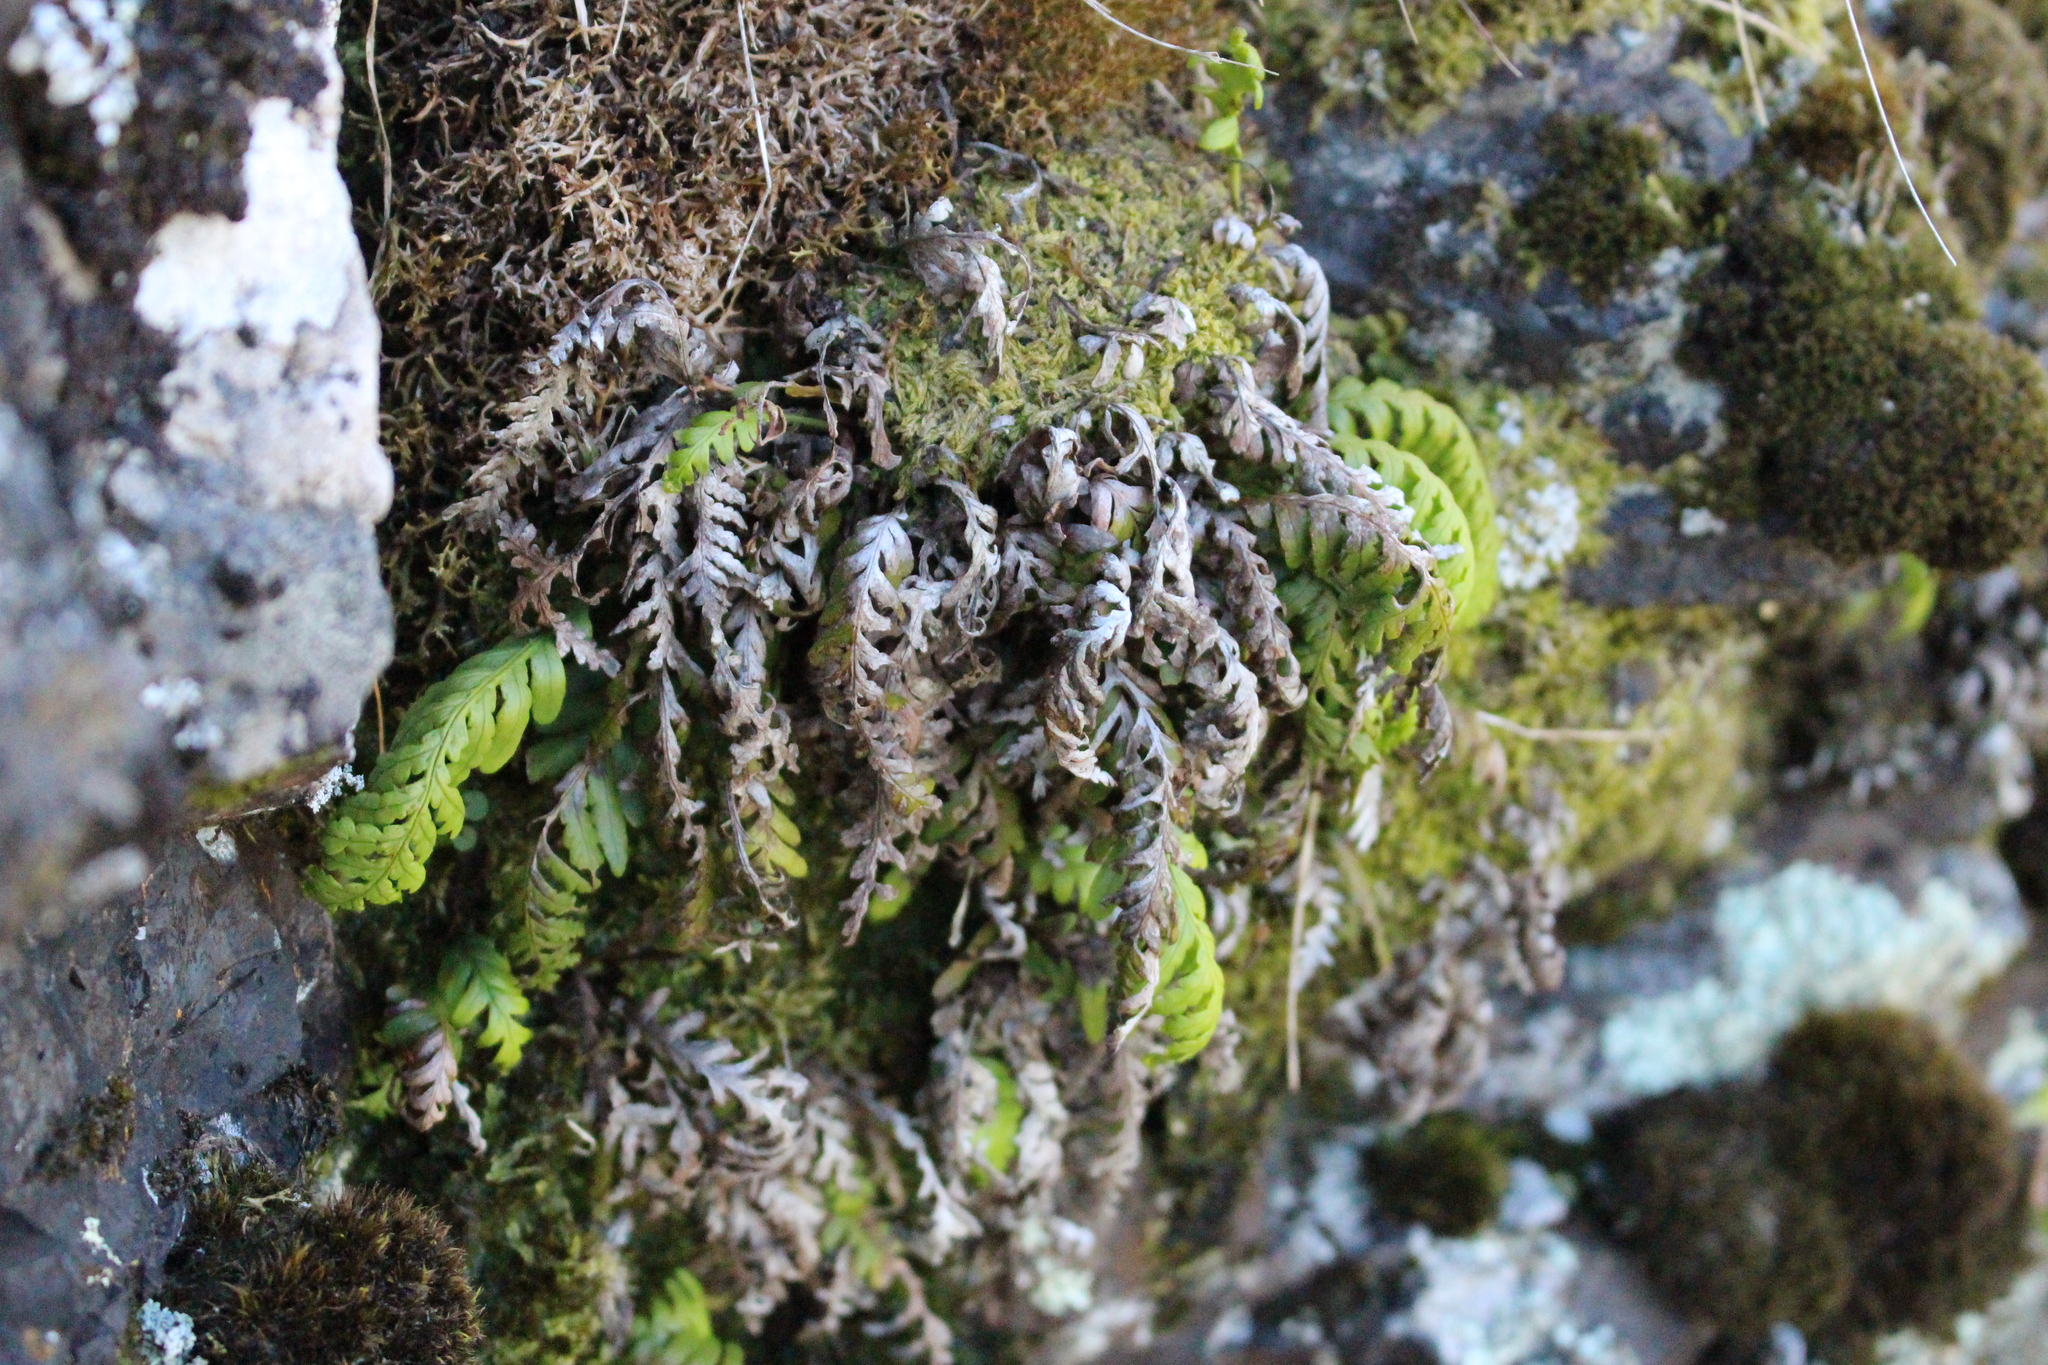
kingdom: Plantae
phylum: Tracheophyta
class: Polypodiopsida
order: Polypodiales
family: Polypodiaceae
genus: Notogrammitis
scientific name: Notogrammitis heterophylla
